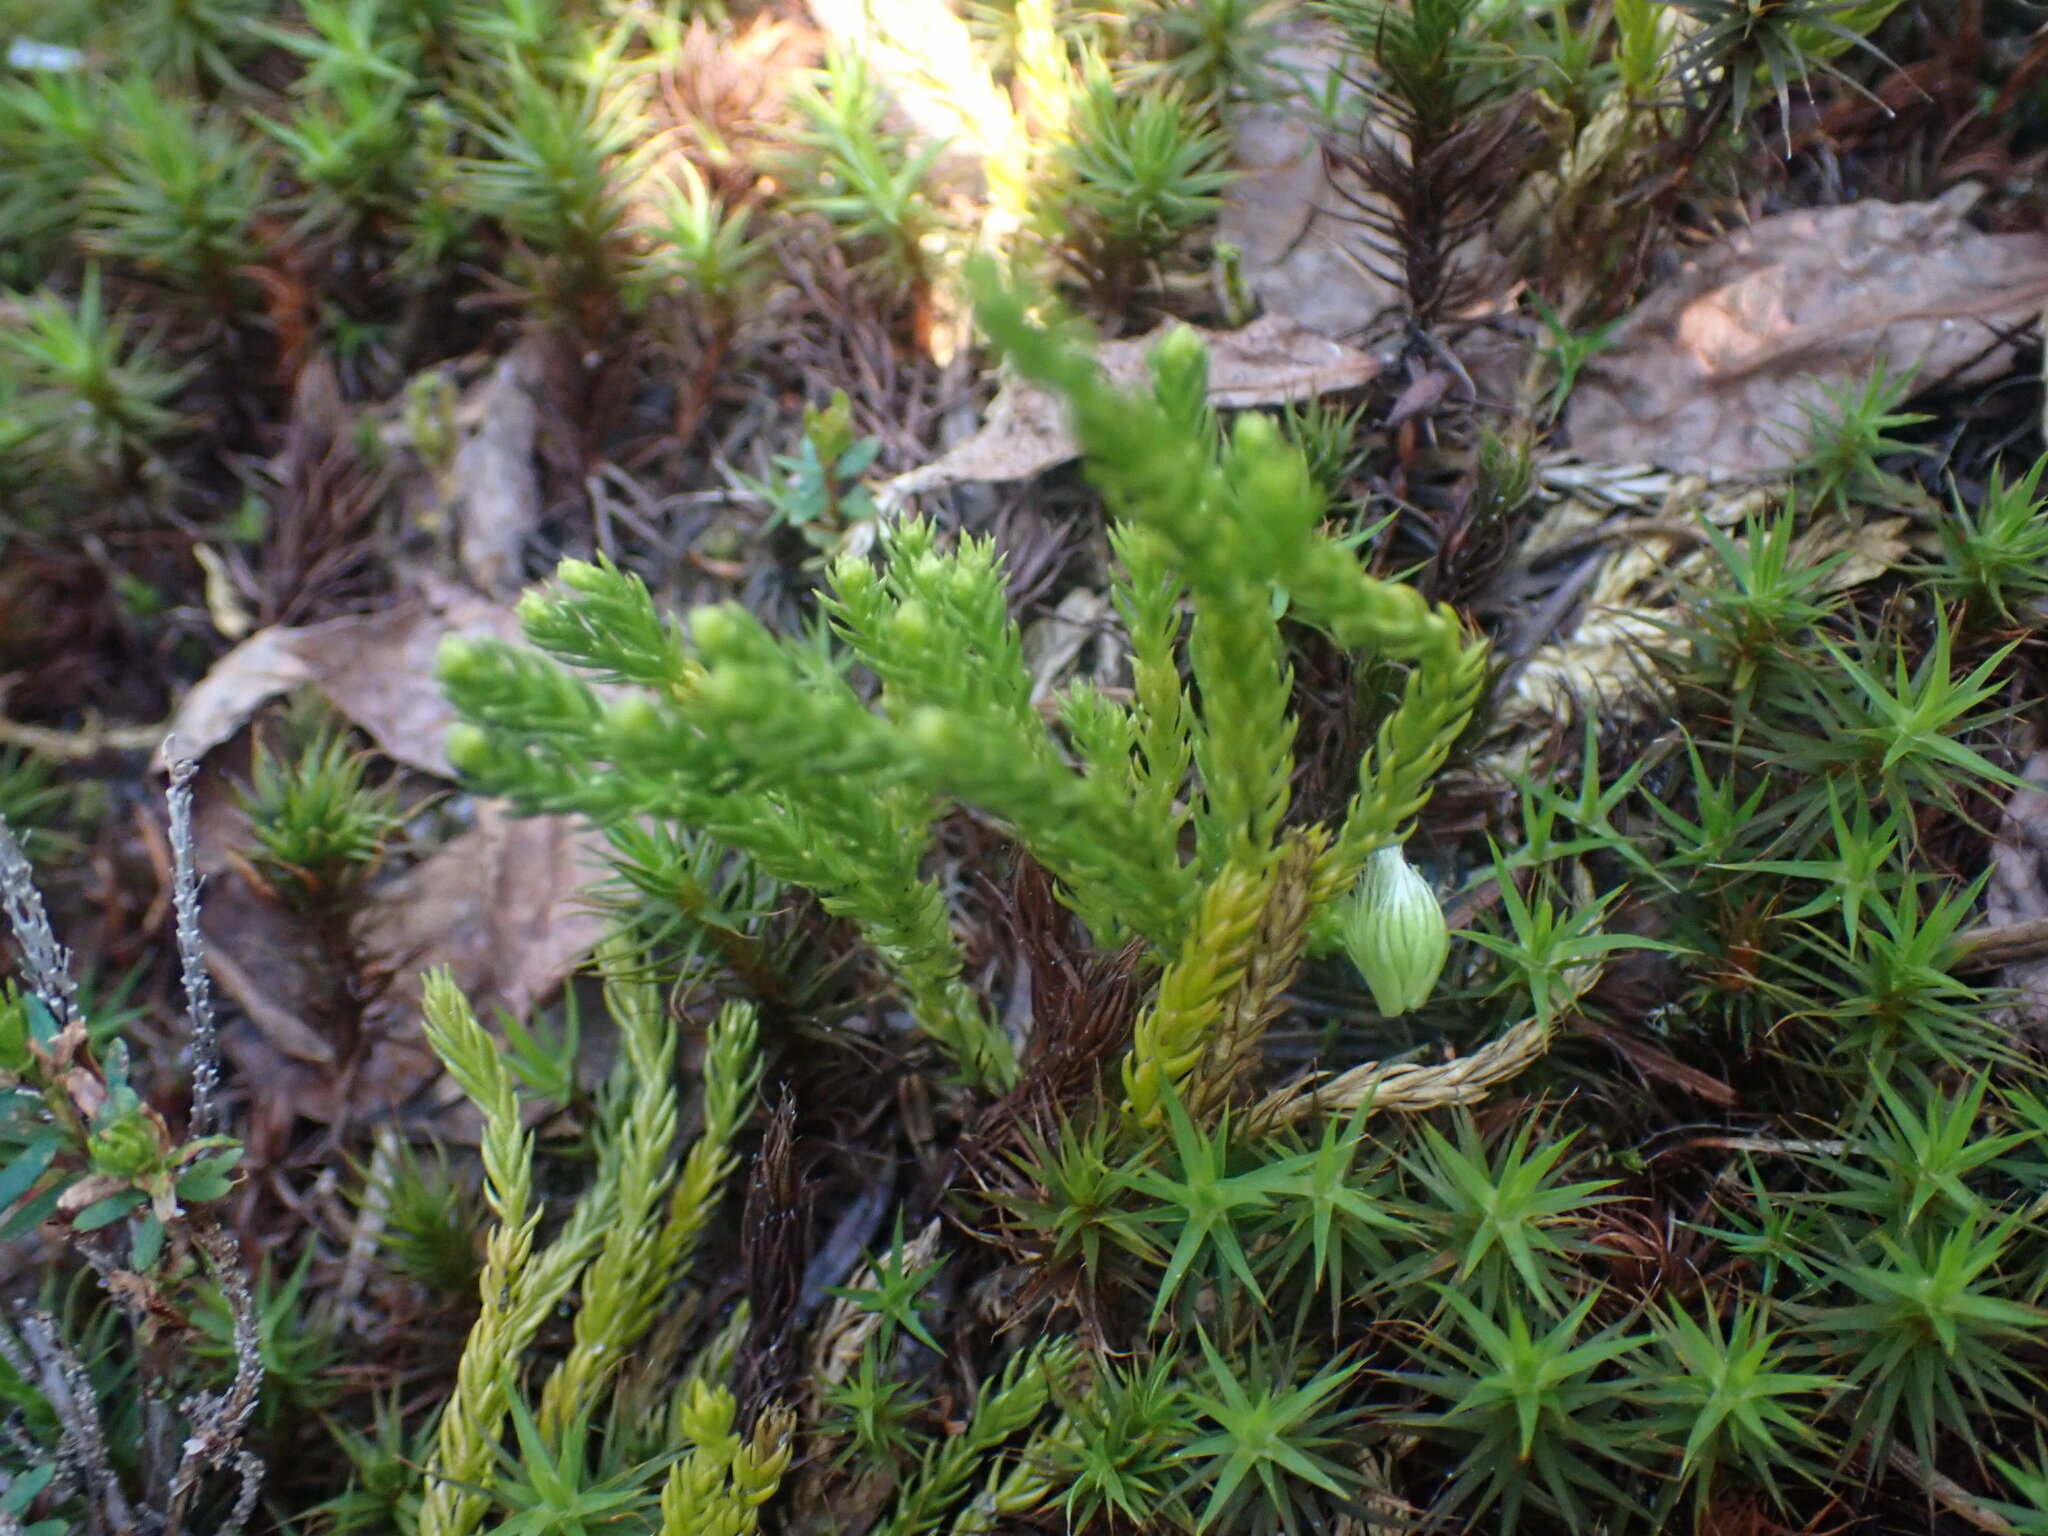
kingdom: Plantae
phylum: Tracheophyta
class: Lycopodiopsida
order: Lycopodiales
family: Lycopodiaceae
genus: Diphasiastrum
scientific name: Diphasiastrum sitchense
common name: Alaska clubmoss
